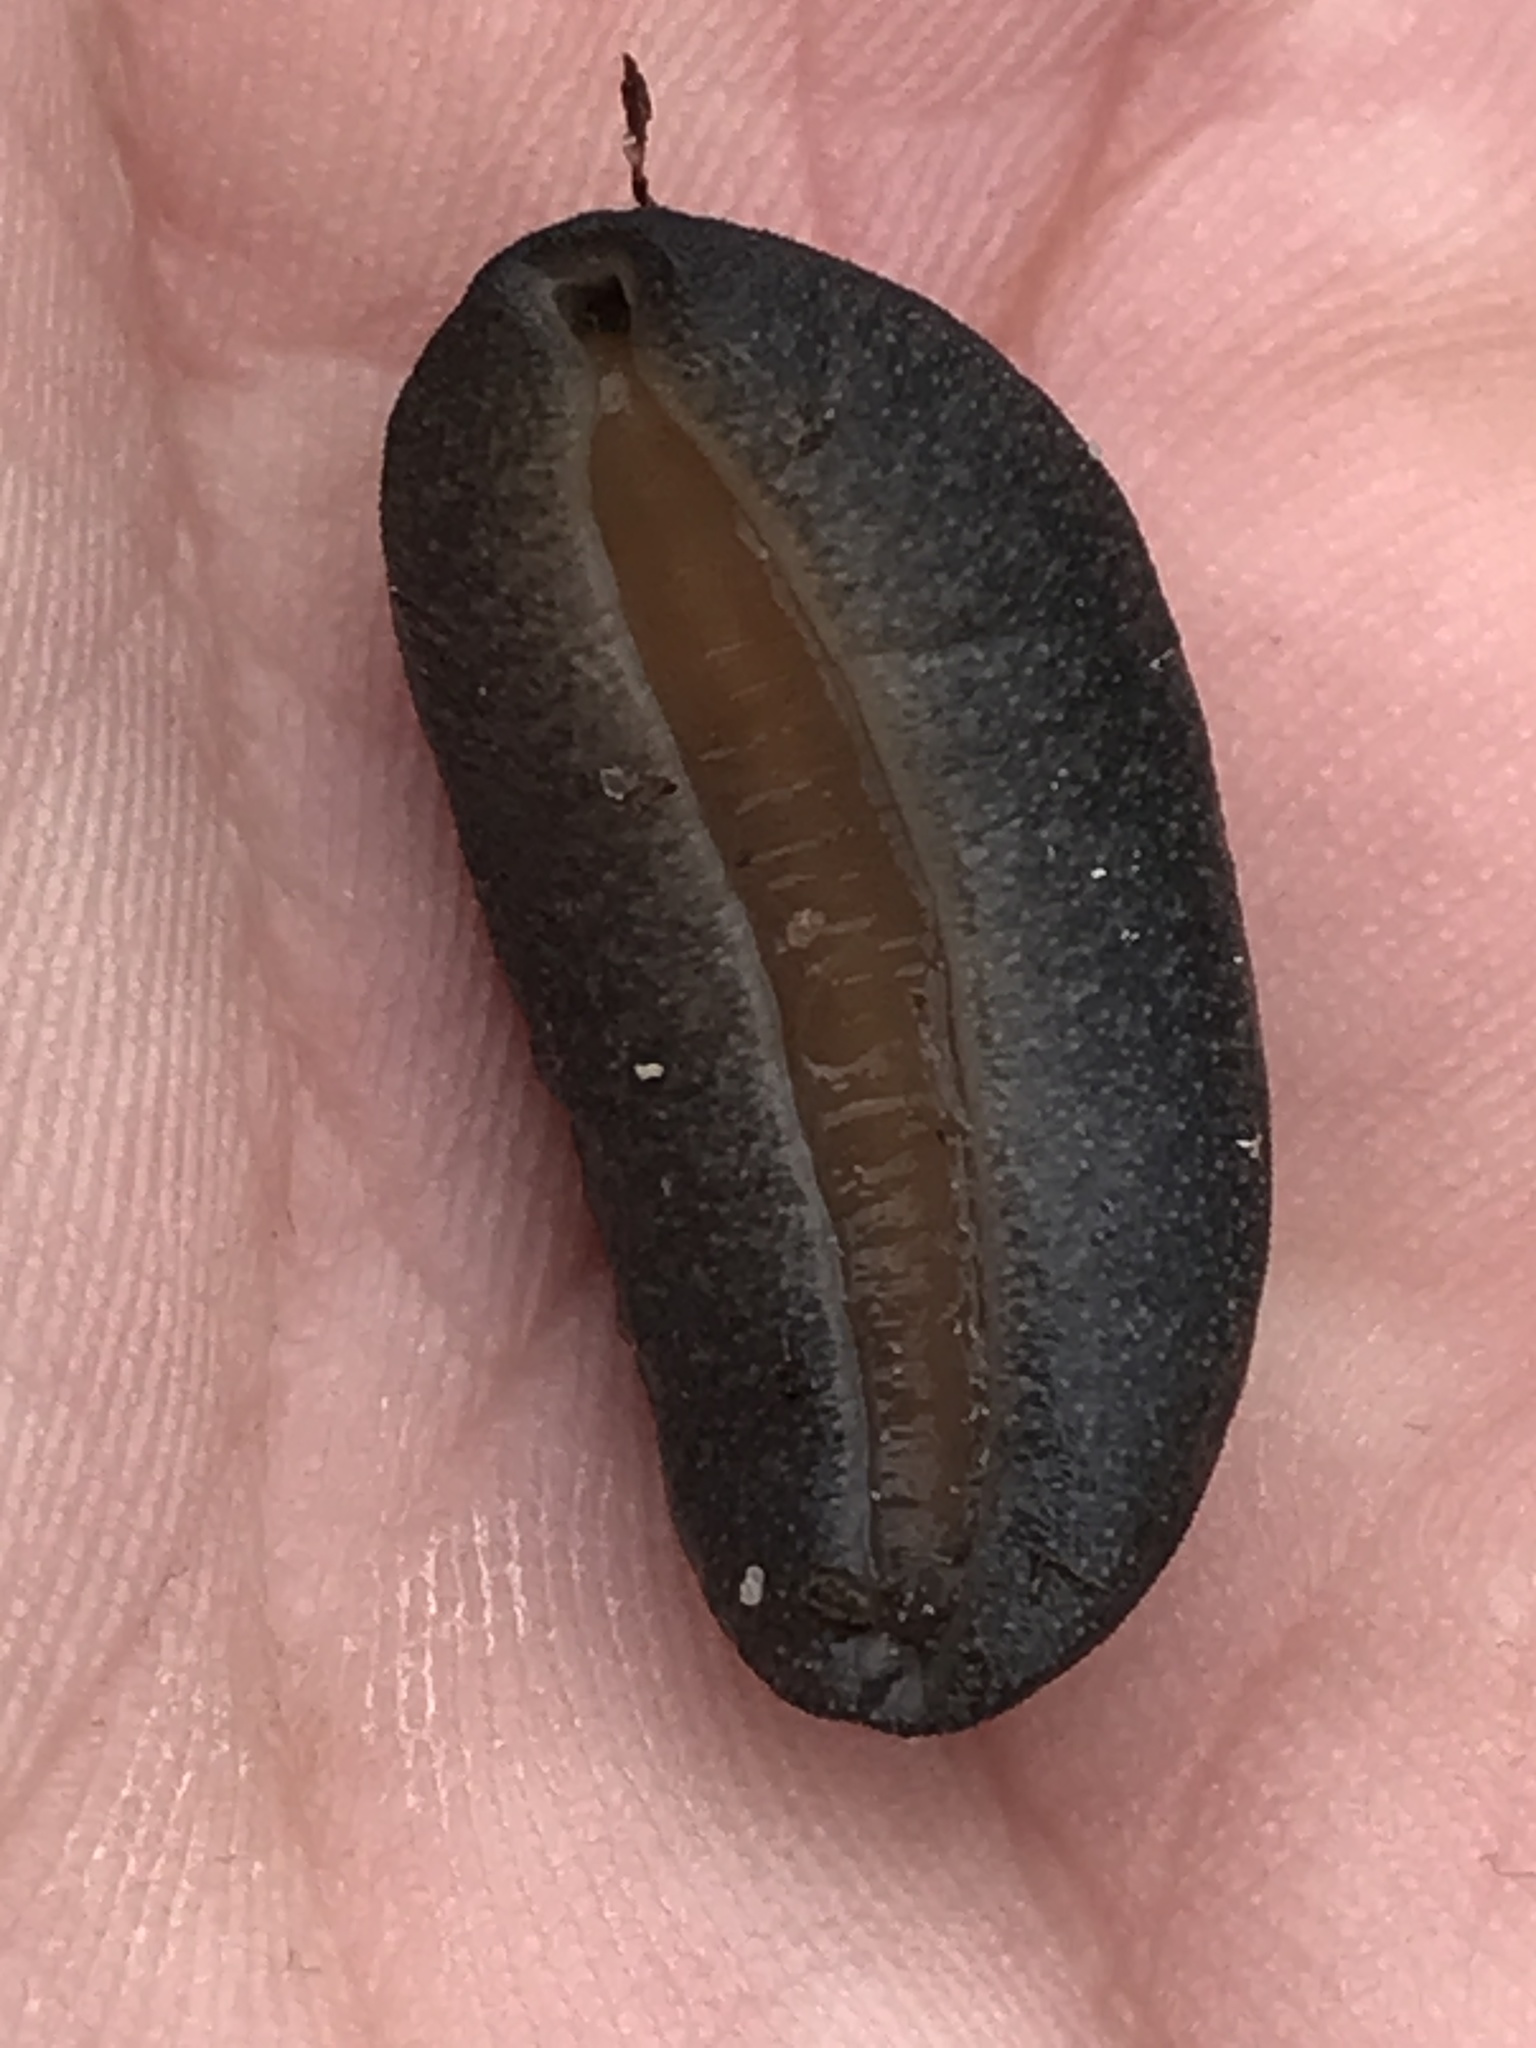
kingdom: Animalia
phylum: Mollusca
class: Gastropoda
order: Systellommatophora
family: Veronicellidae
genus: Belocaulus
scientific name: Belocaulus angustipes
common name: Black velvet leatherleaf slug
